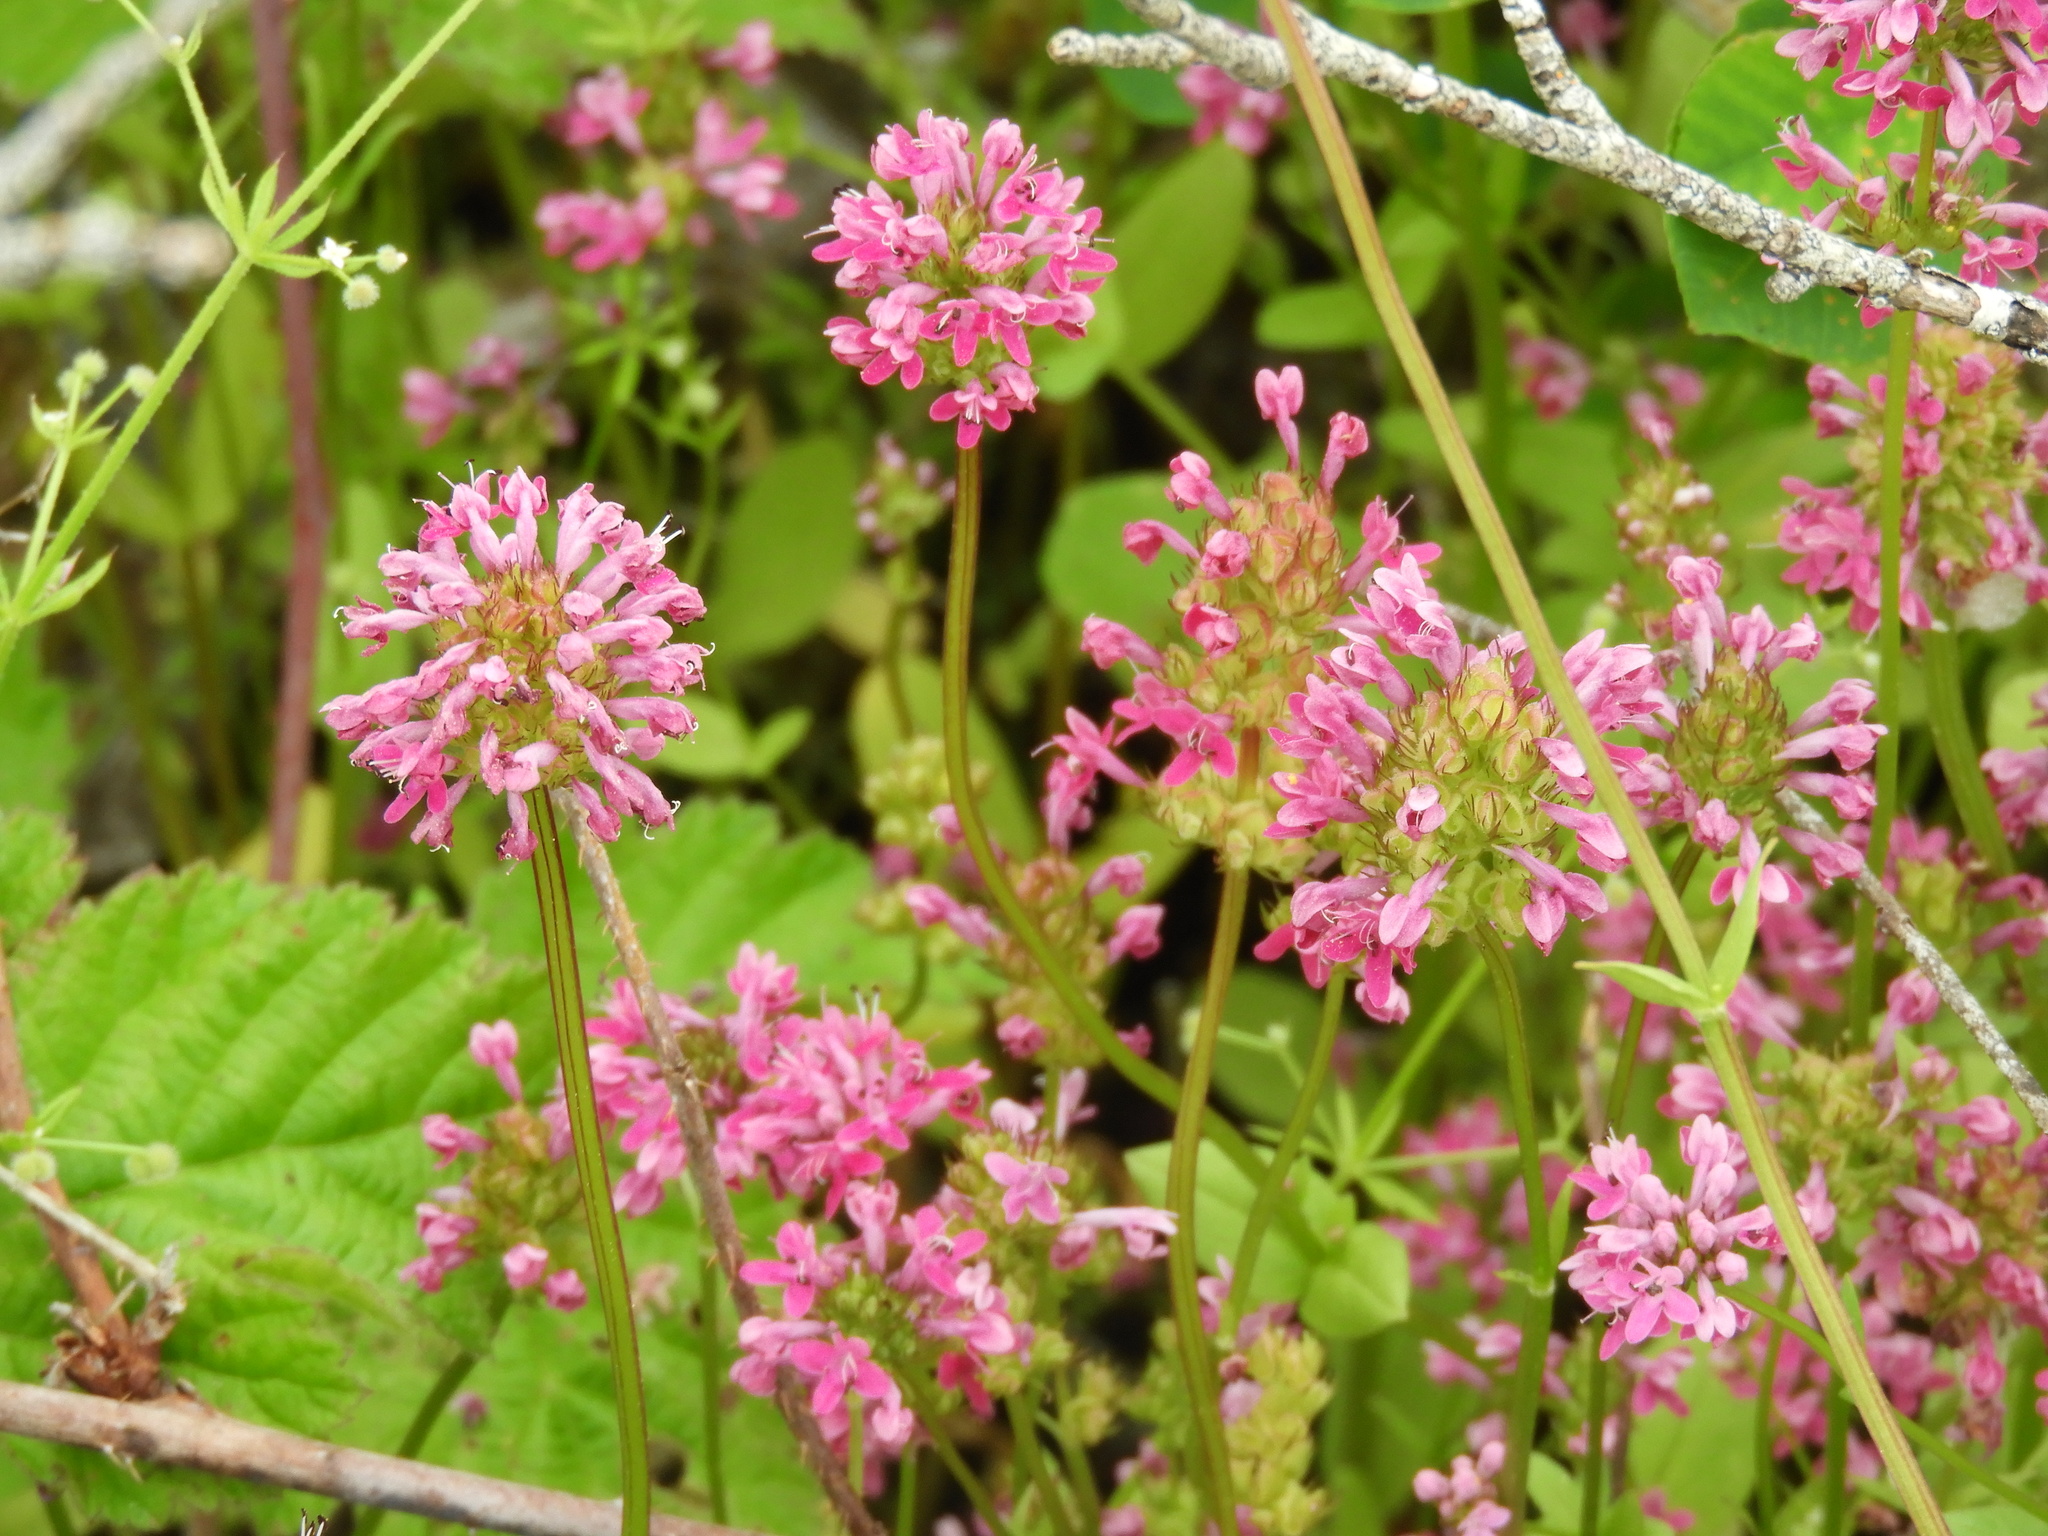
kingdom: Plantae
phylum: Tracheophyta
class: Magnoliopsida
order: Dipsacales
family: Caprifoliaceae
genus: Plectritis
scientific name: Plectritis congesta
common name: Pink plectritis
